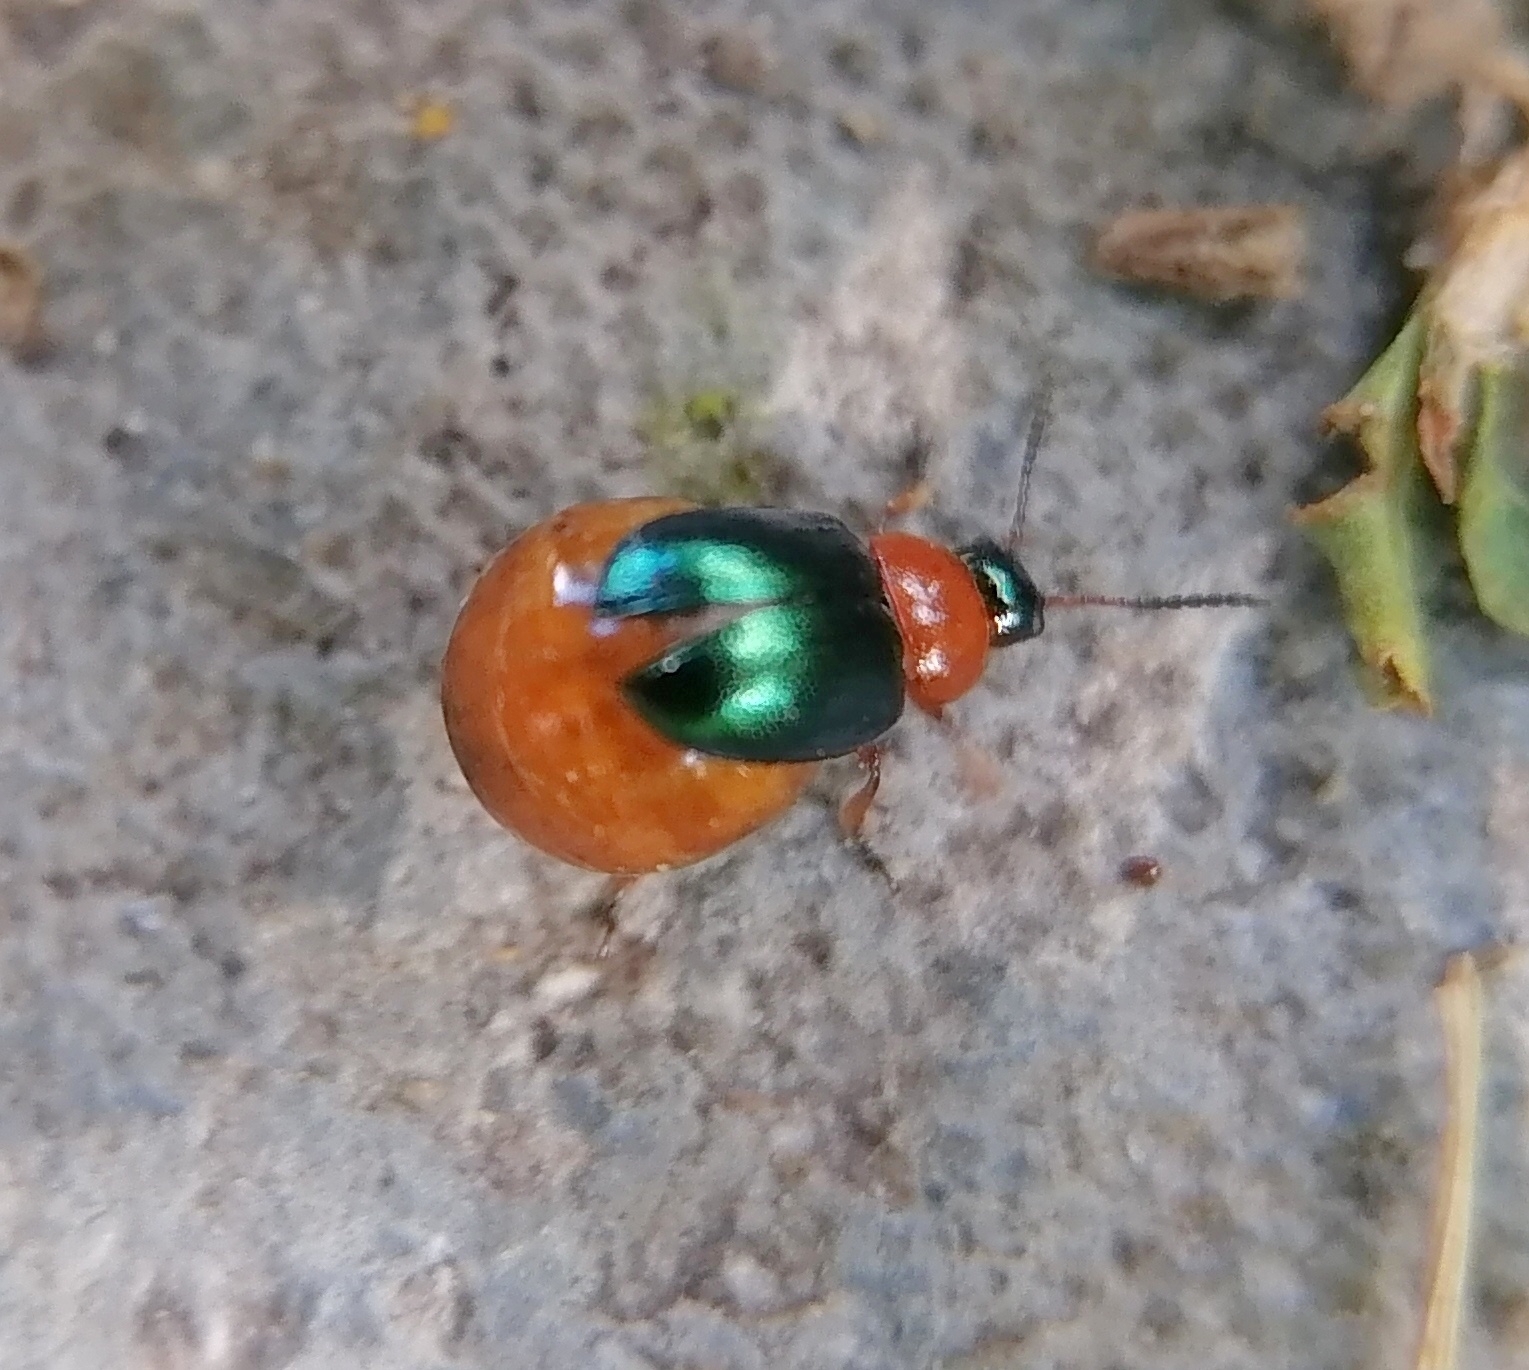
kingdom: Animalia
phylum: Arthropoda
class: Insecta
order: Coleoptera
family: Chrysomelidae
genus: Gastrophysa
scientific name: Gastrophysa polygoni
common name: Knotweed leaf beetle
